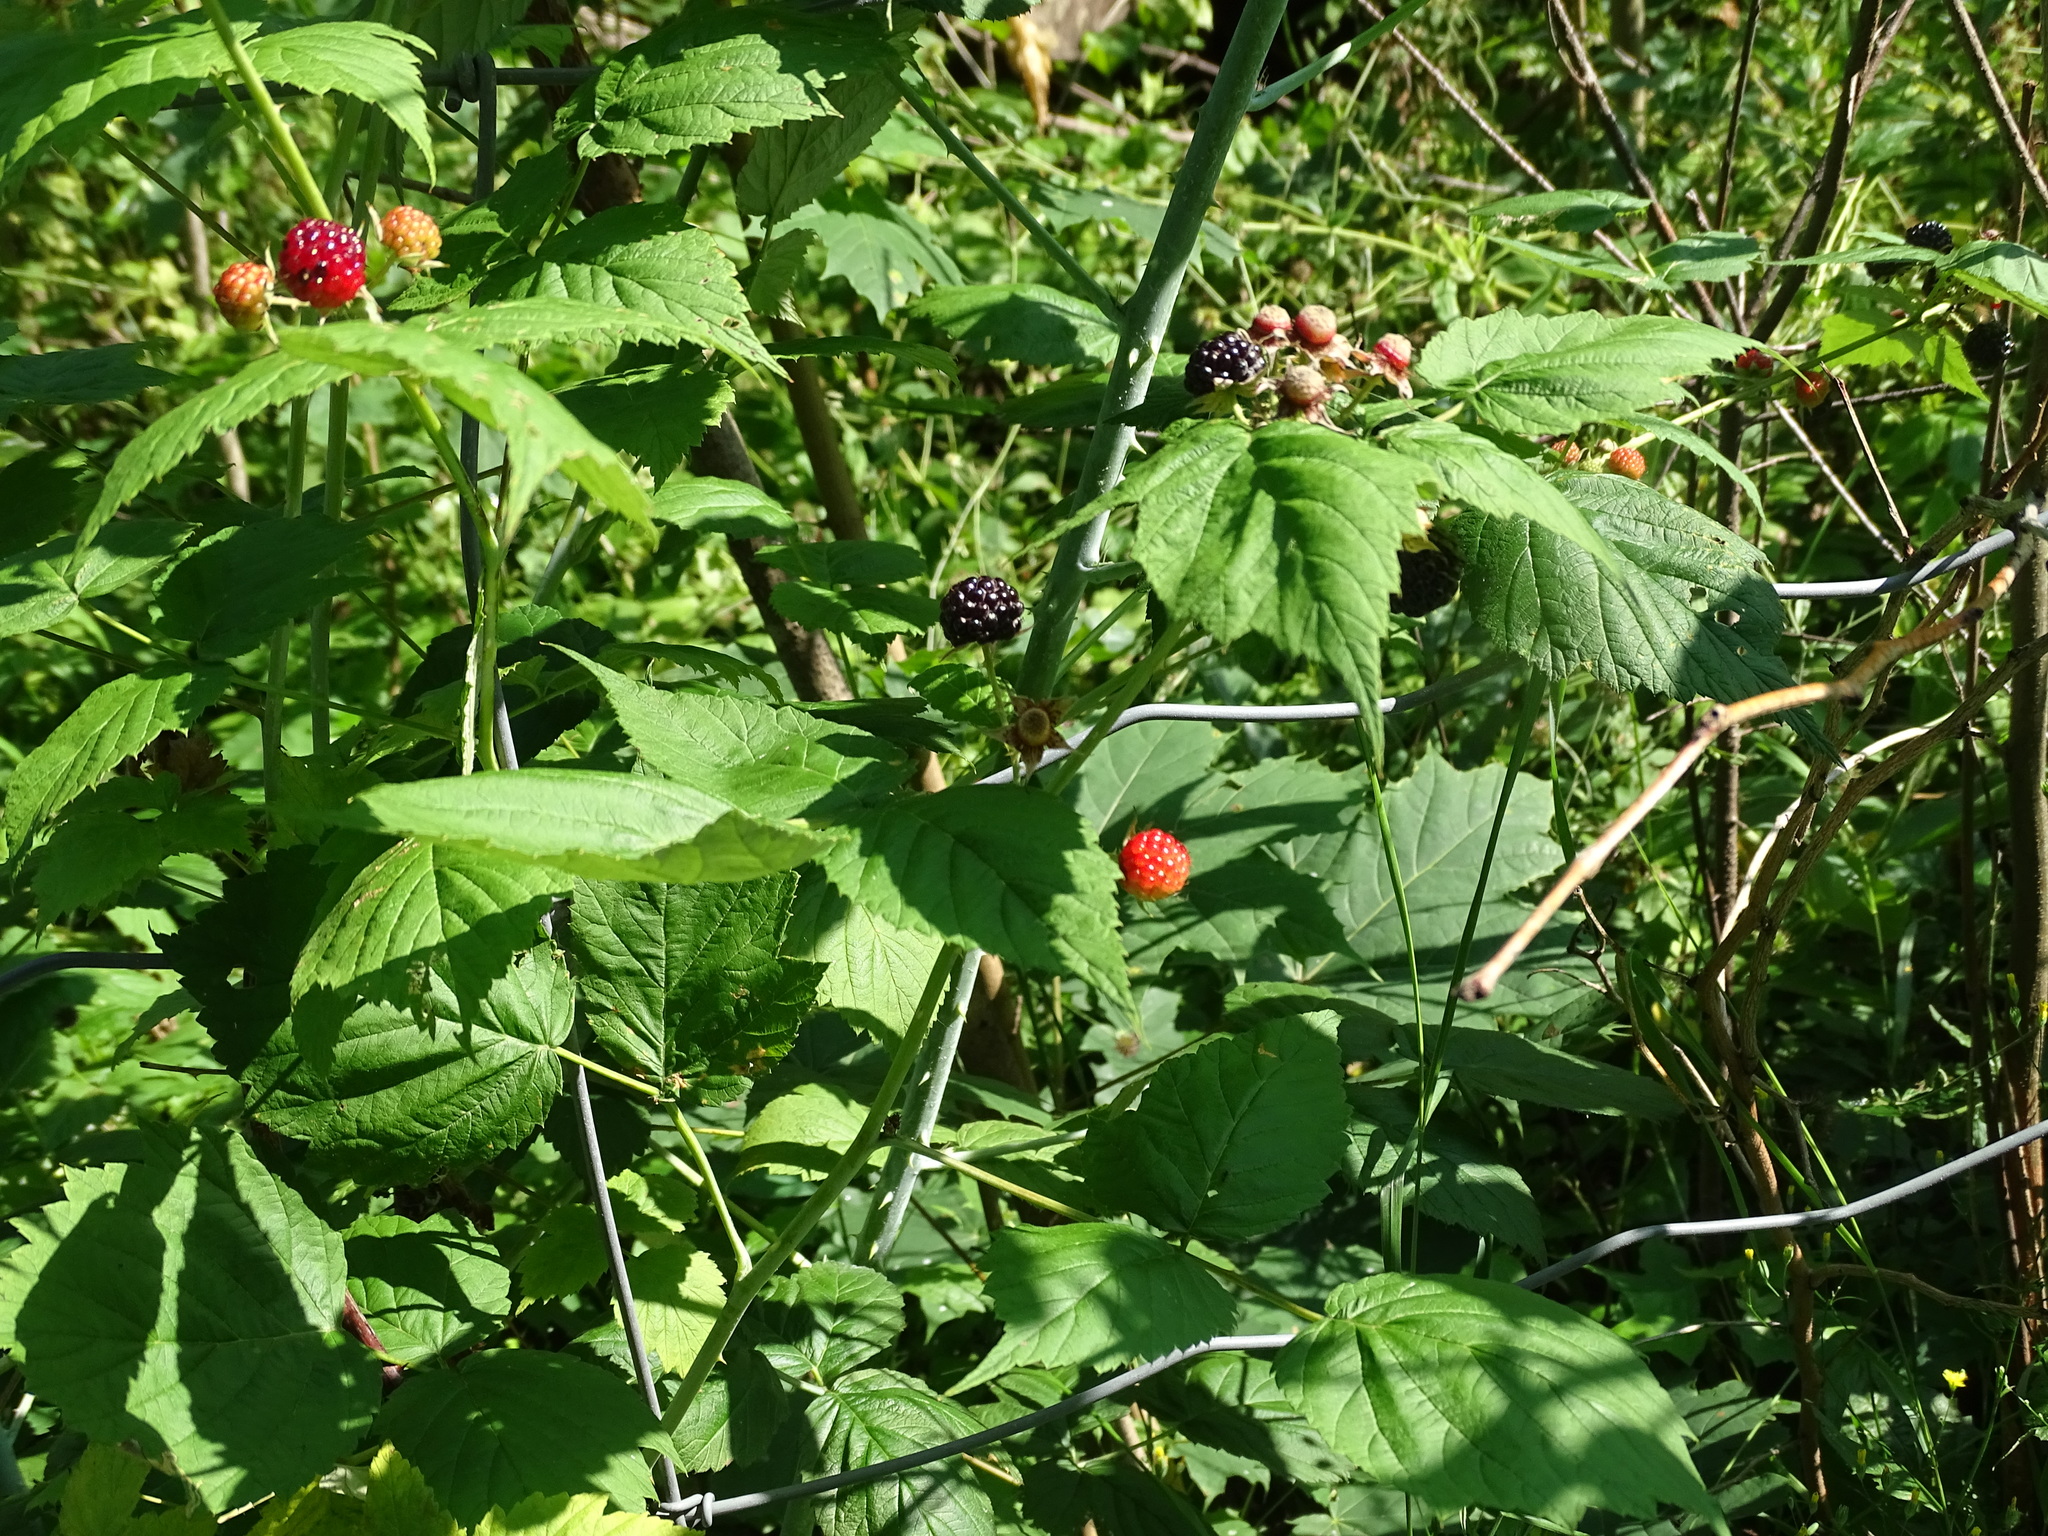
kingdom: Plantae
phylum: Tracheophyta
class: Magnoliopsida
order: Rosales
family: Rosaceae
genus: Rubus
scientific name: Rubus occidentalis
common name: Black raspberry
